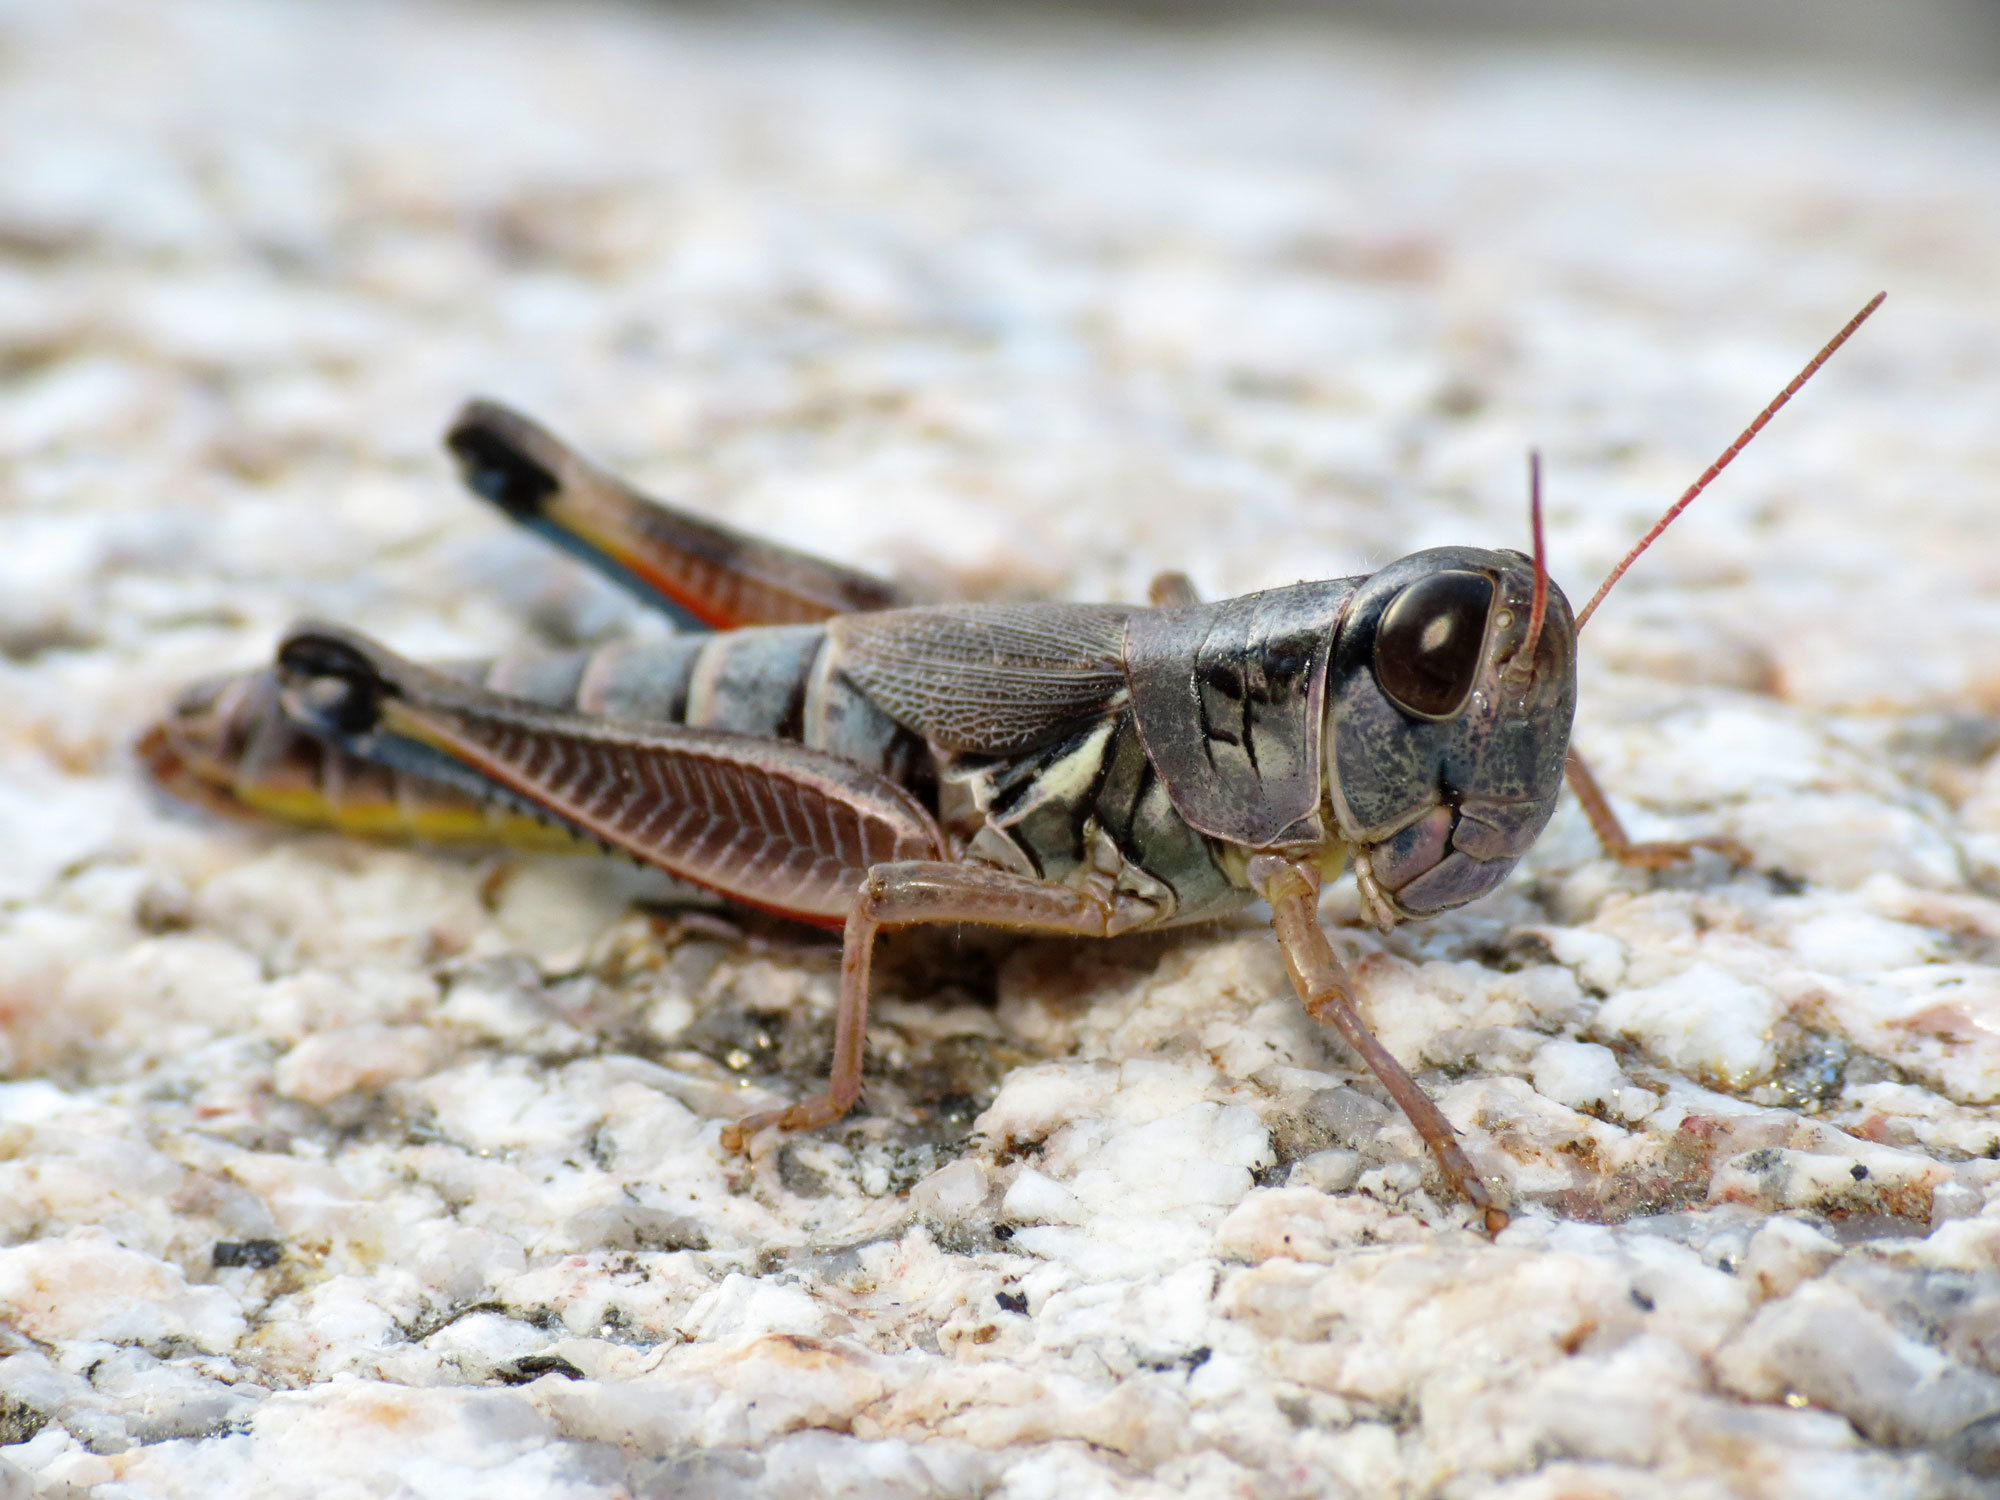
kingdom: Animalia
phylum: Arthropoda
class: Insecta
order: Orthoptera
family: Acrididae
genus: Phoetaliotes
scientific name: Phoetaliotes nebrascensis
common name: Large-headed grasshopper
